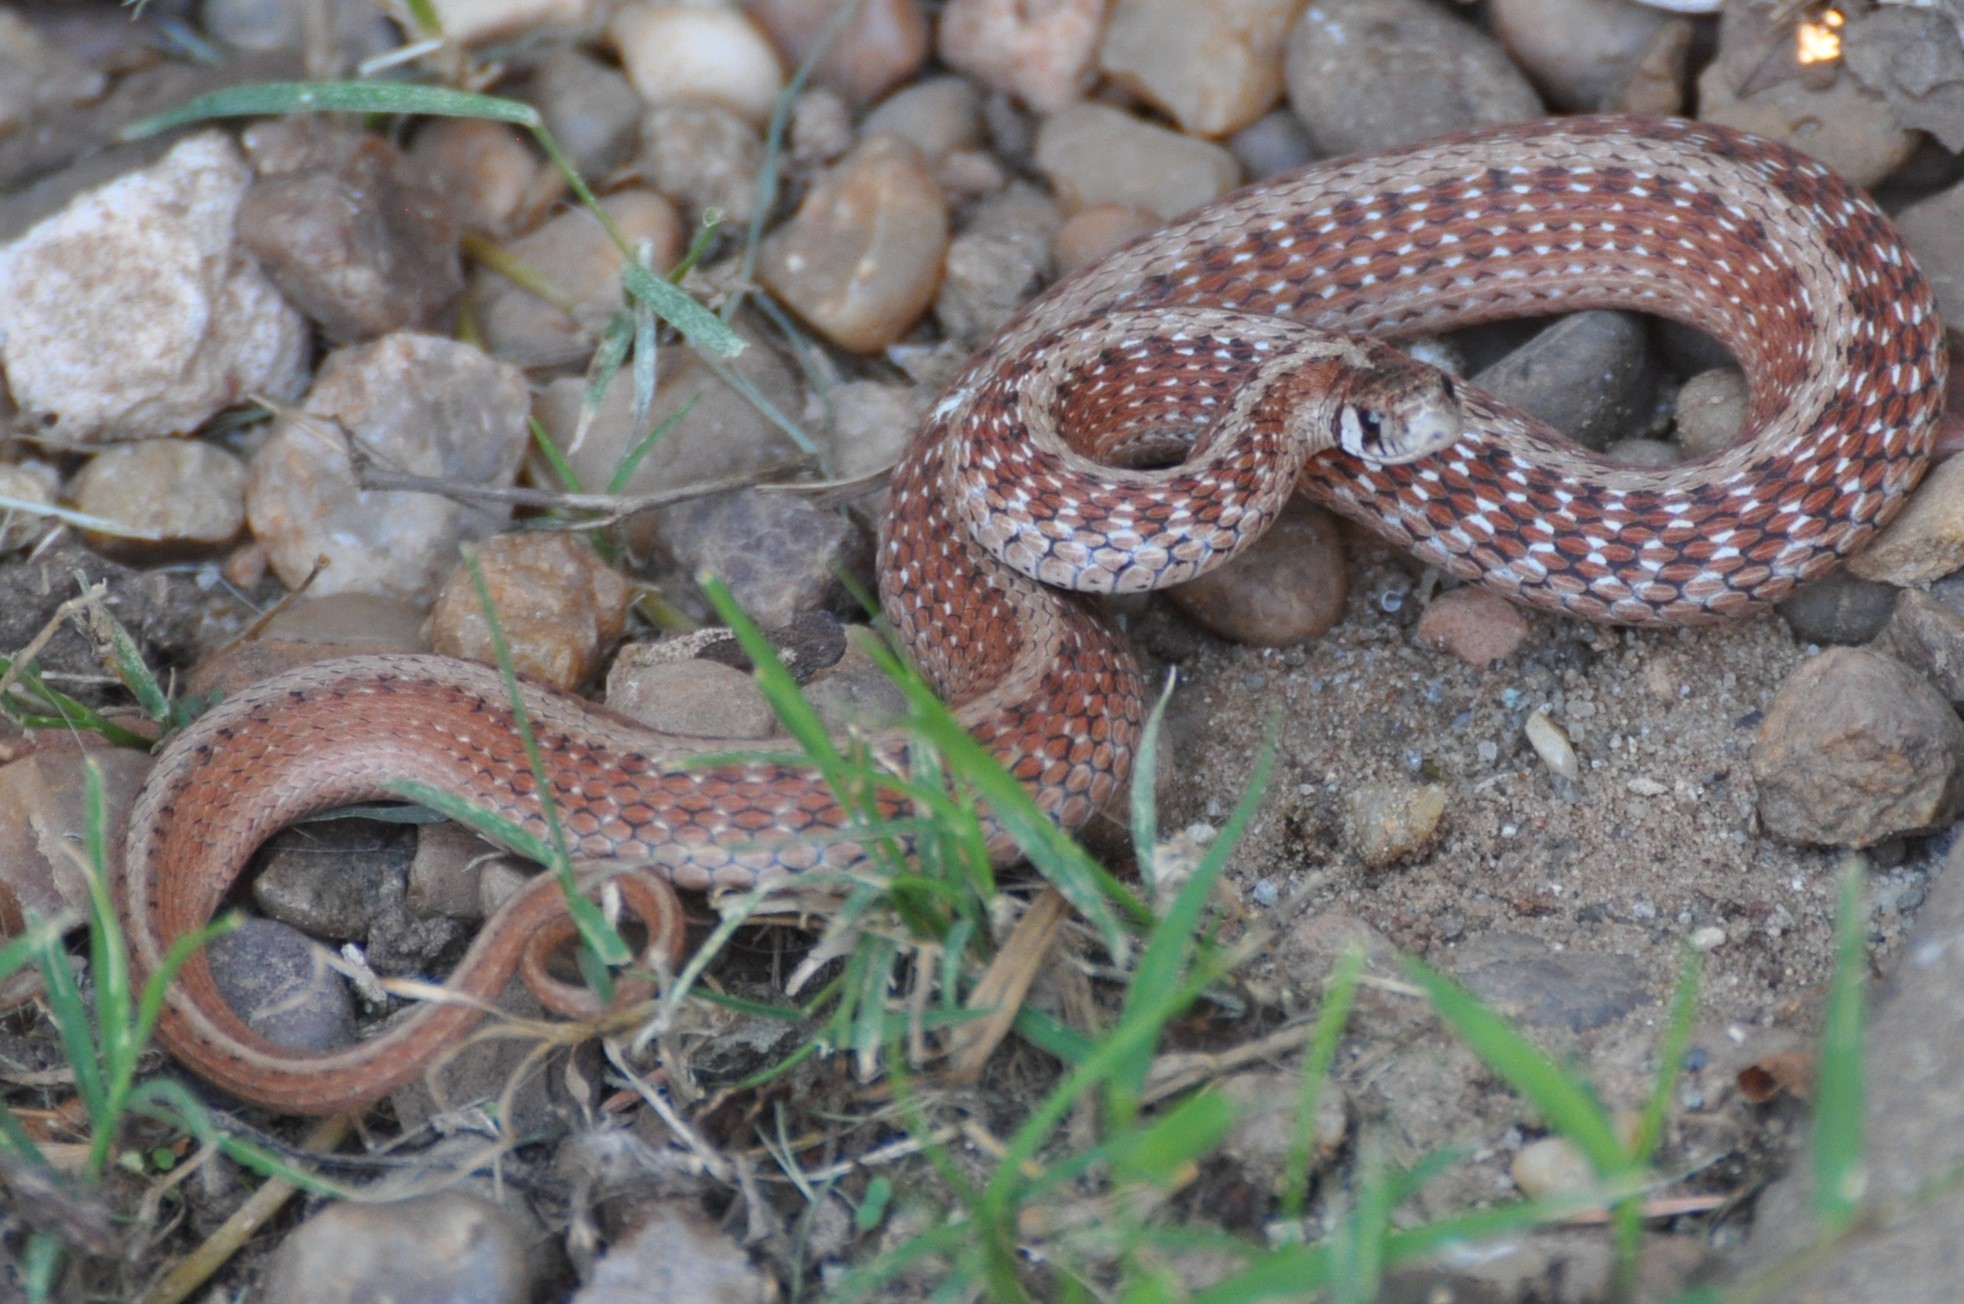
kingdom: Animalia
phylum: Chordata
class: Squamata
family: Colubridae
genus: Storeria
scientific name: Storeria dekayi
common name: (dekay’s) brown snake
